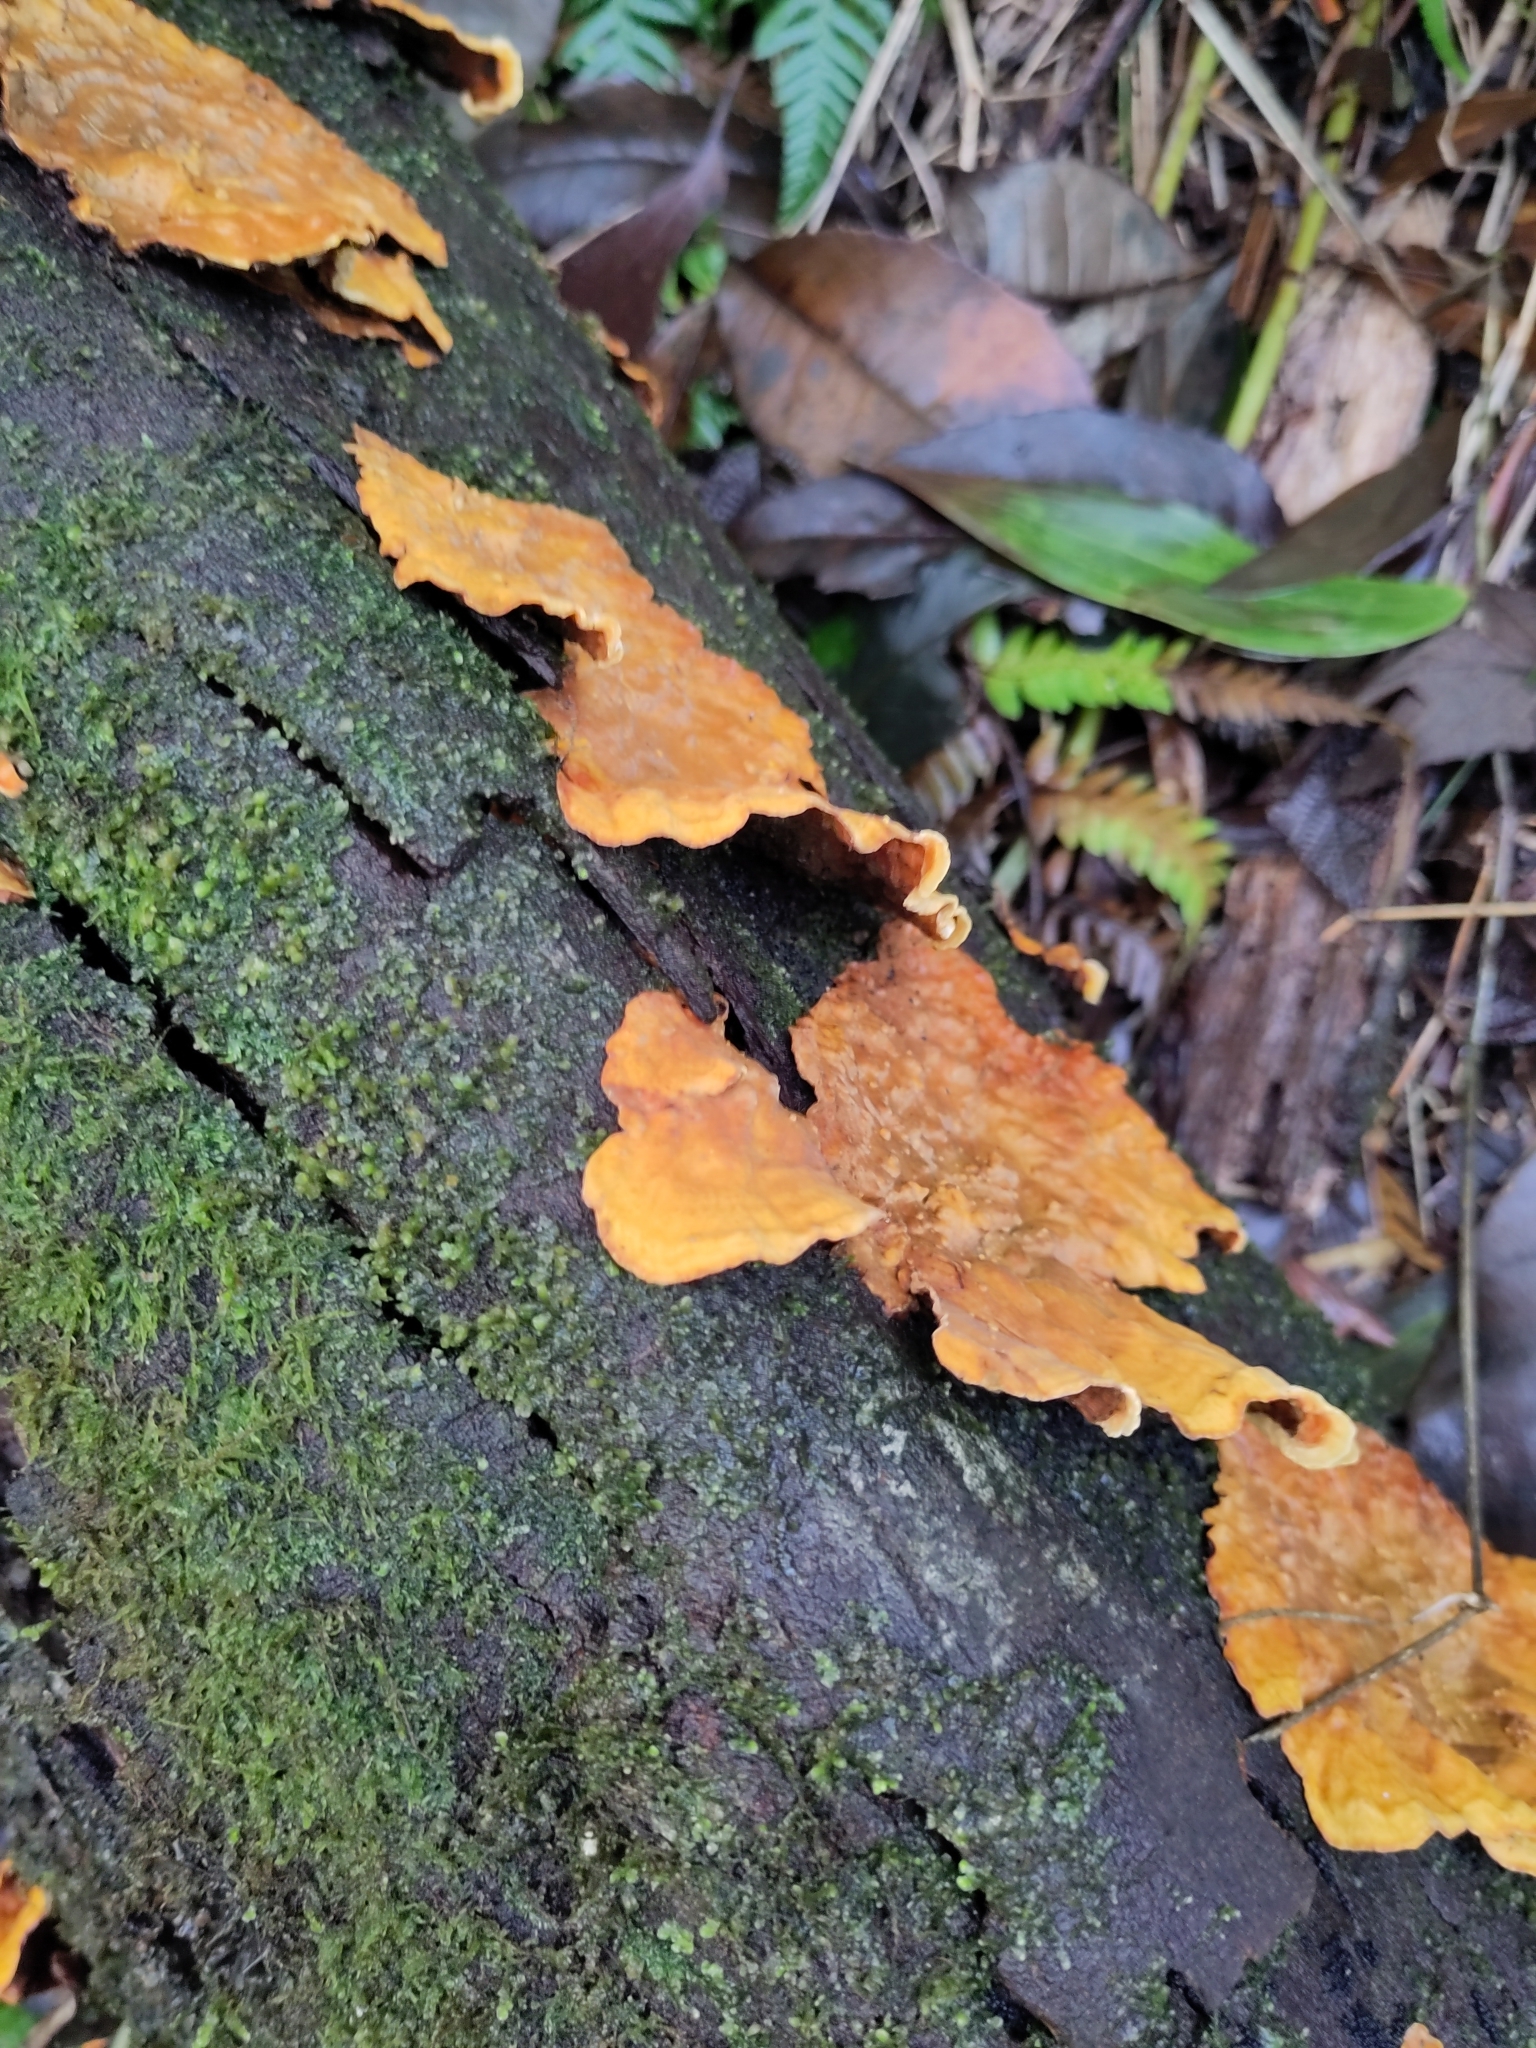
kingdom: Fungi
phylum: Basidiomycota
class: Agaricomycetes
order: Russulales
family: Stereaceae
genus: Stereum
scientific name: Stereum hirsutum
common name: Hairy curtain crust
